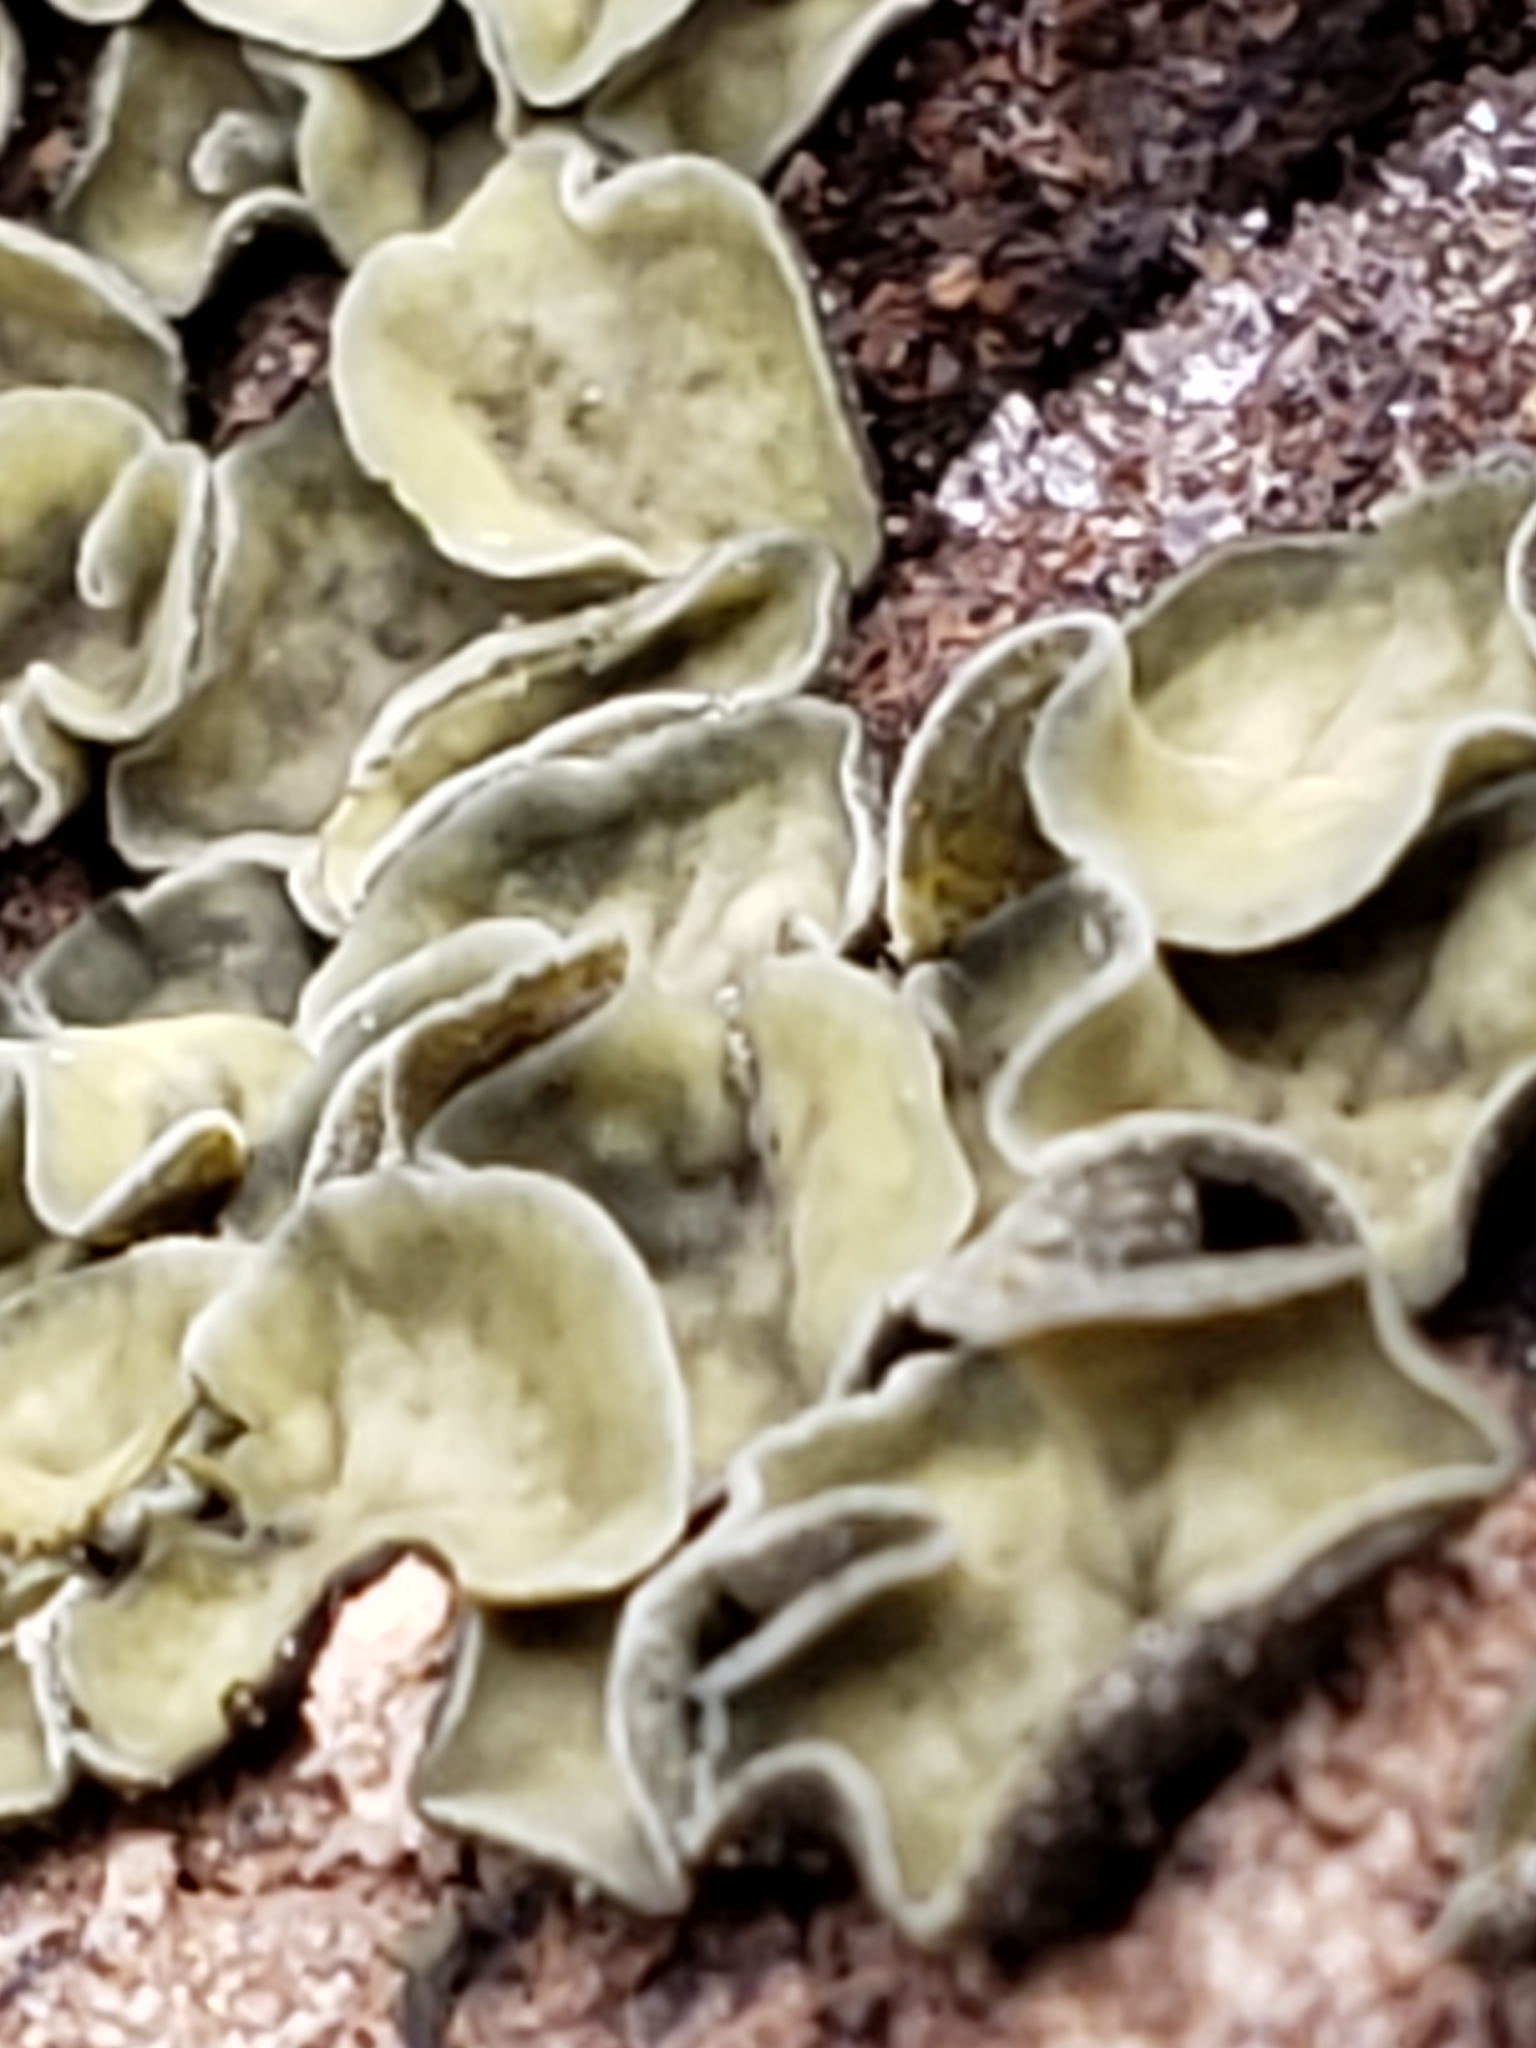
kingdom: Fungi
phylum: Ascomycota
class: Leotiomycetes
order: Helotiales
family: Chlorospleniaceae
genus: Chlorosplenium
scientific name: Chlorosplenium chlora
